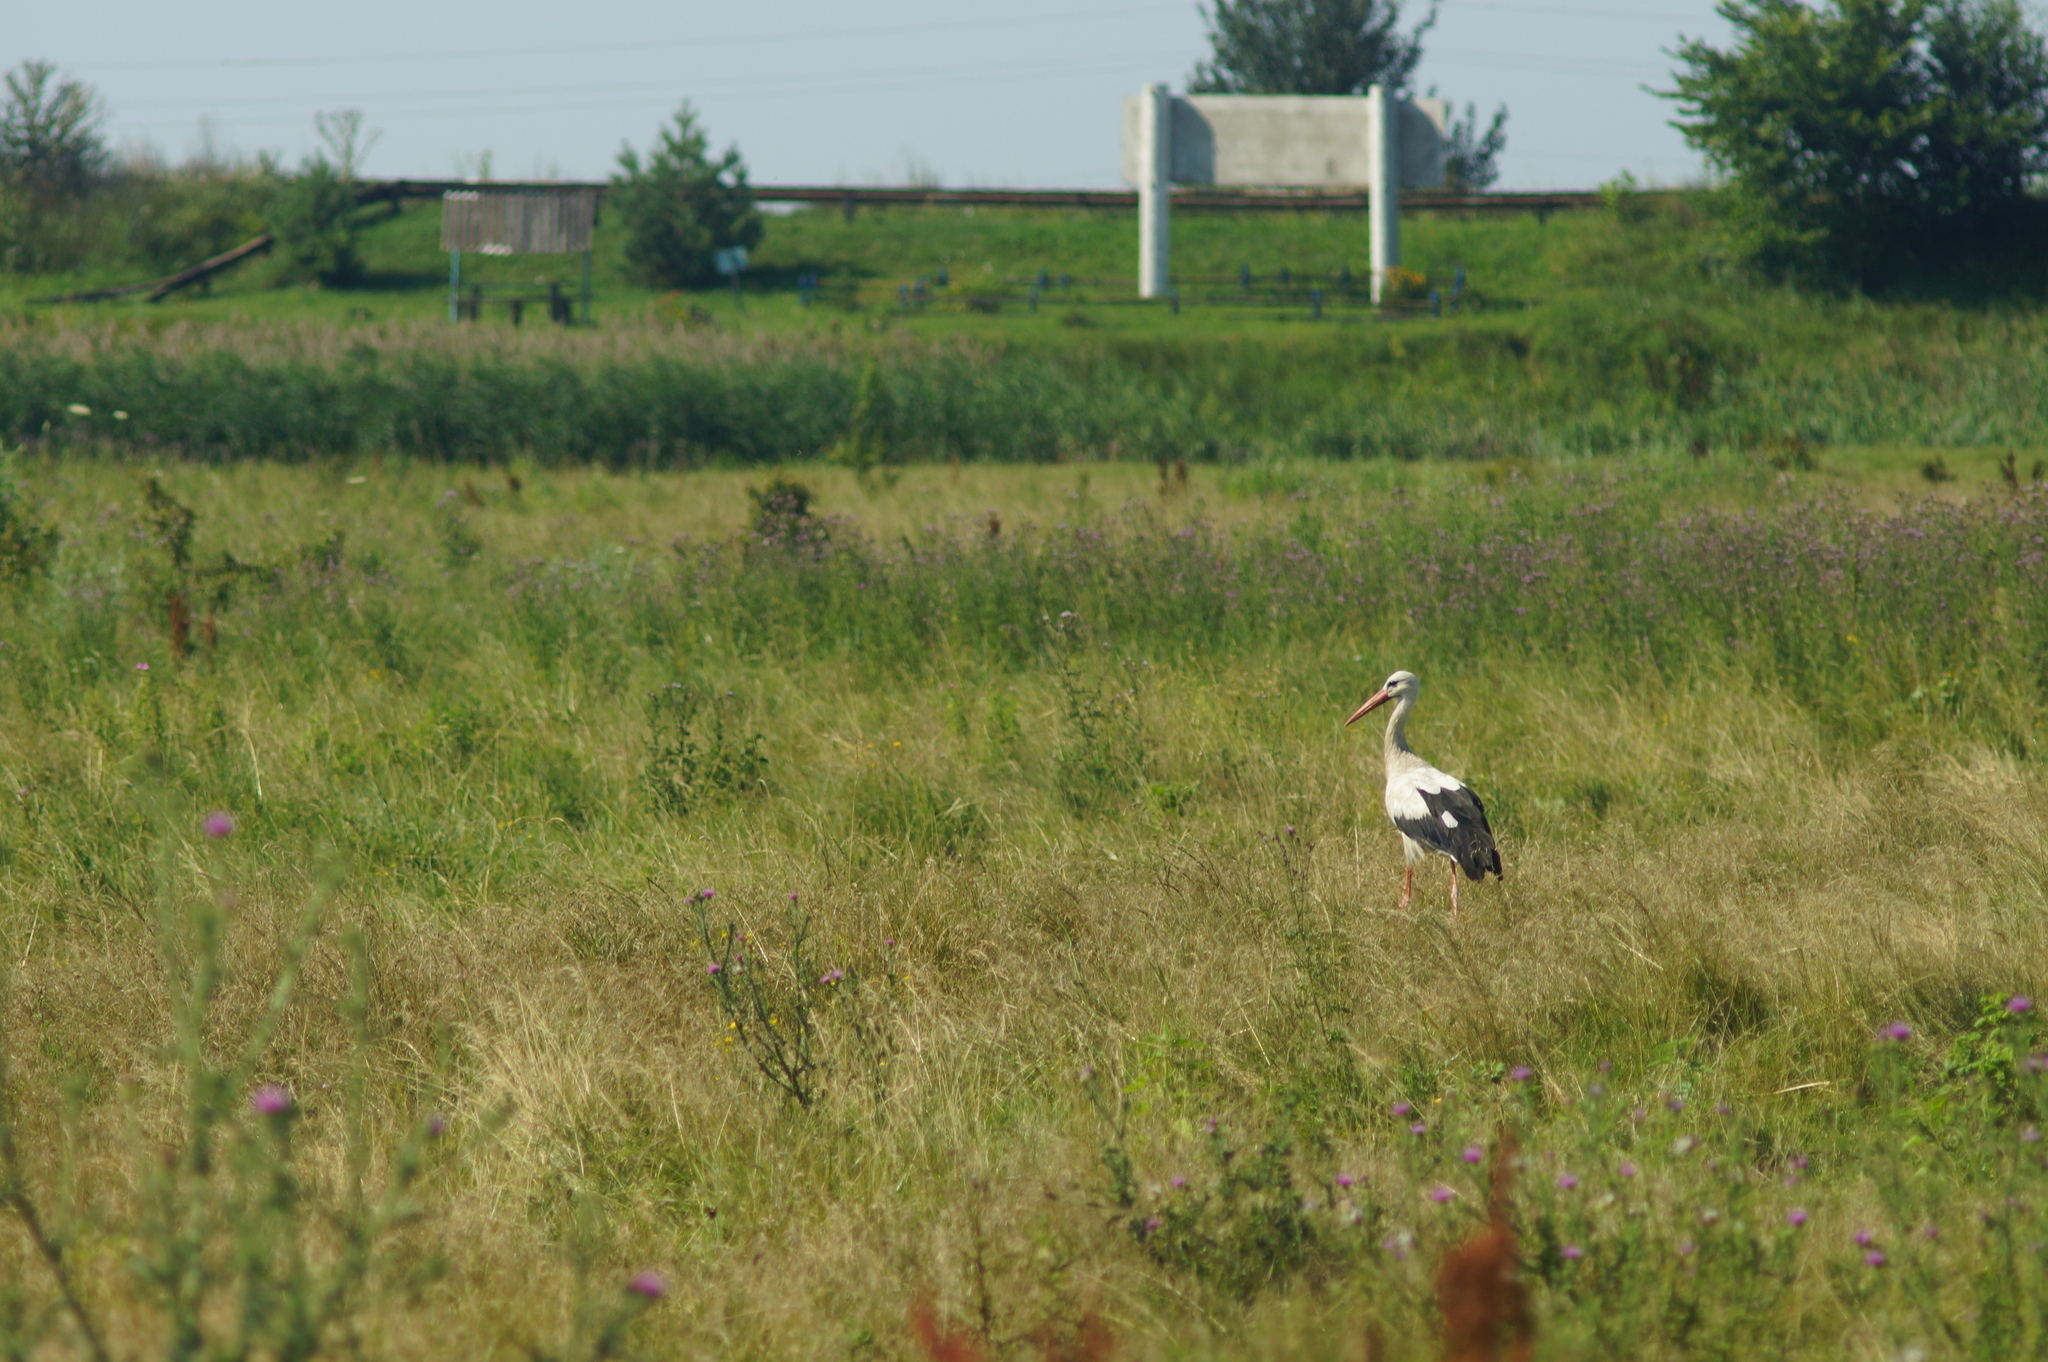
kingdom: Animalia
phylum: Chordata
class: Aves
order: Ciconiiformes
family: Ciconiidae
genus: Ciconia
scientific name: Ciconia ciconia
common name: White stork
